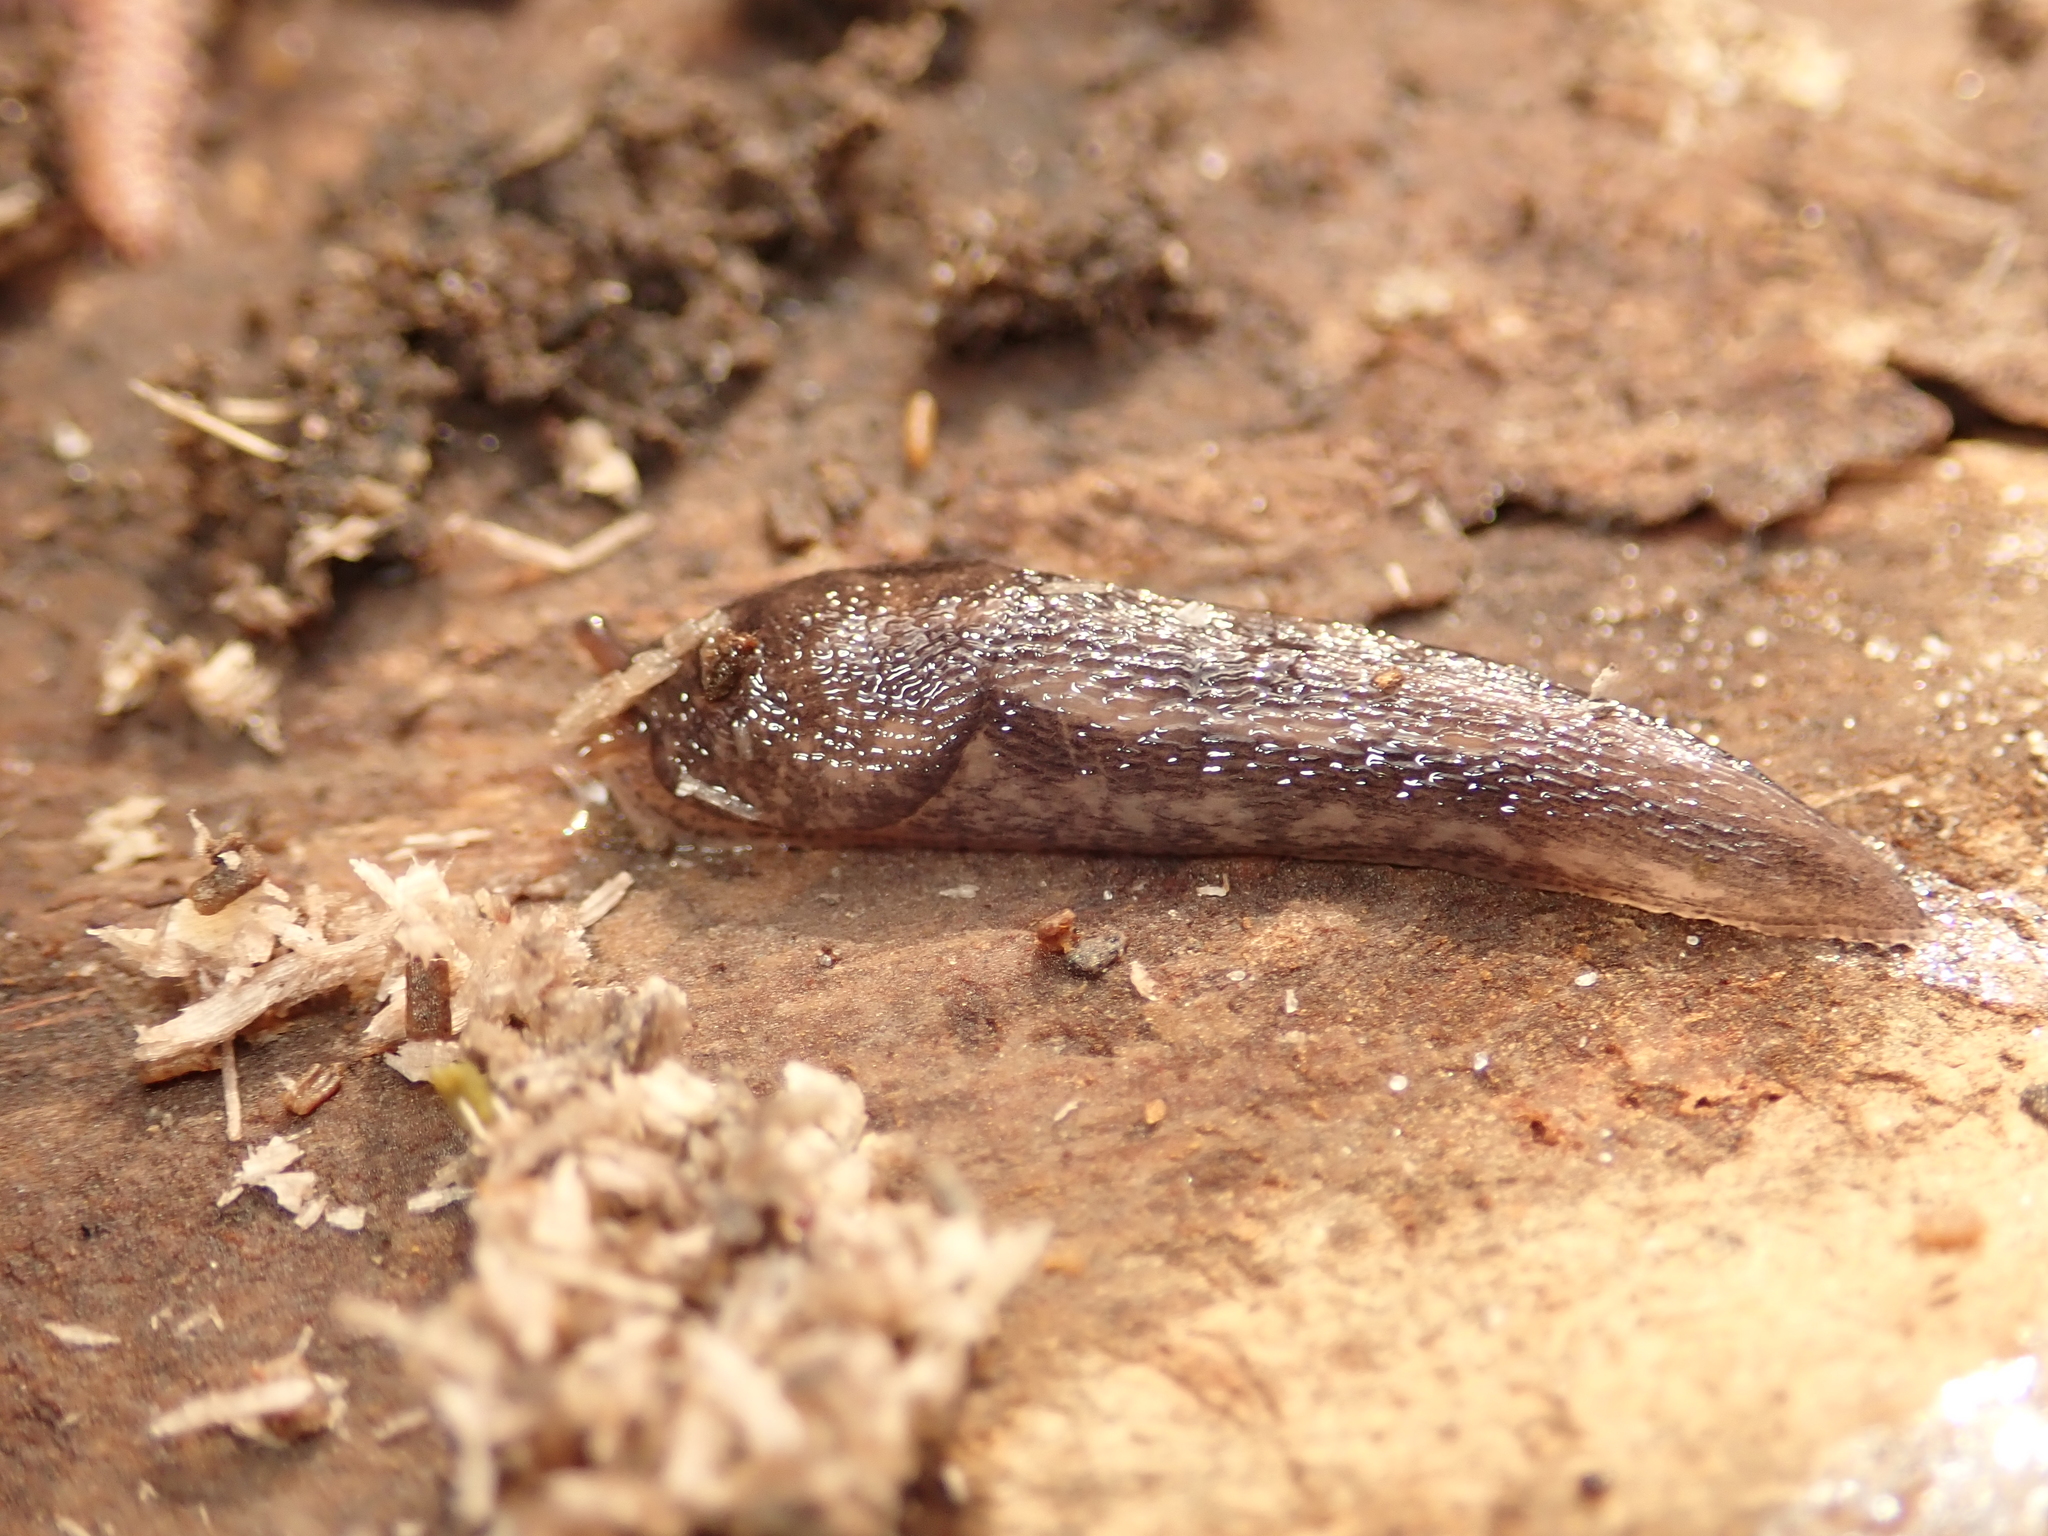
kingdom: Animalia
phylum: Mollusca
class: Gastropoda
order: Stylommatophora
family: Limacidae
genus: Limax
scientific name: Limax maximus
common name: Great grey slug
